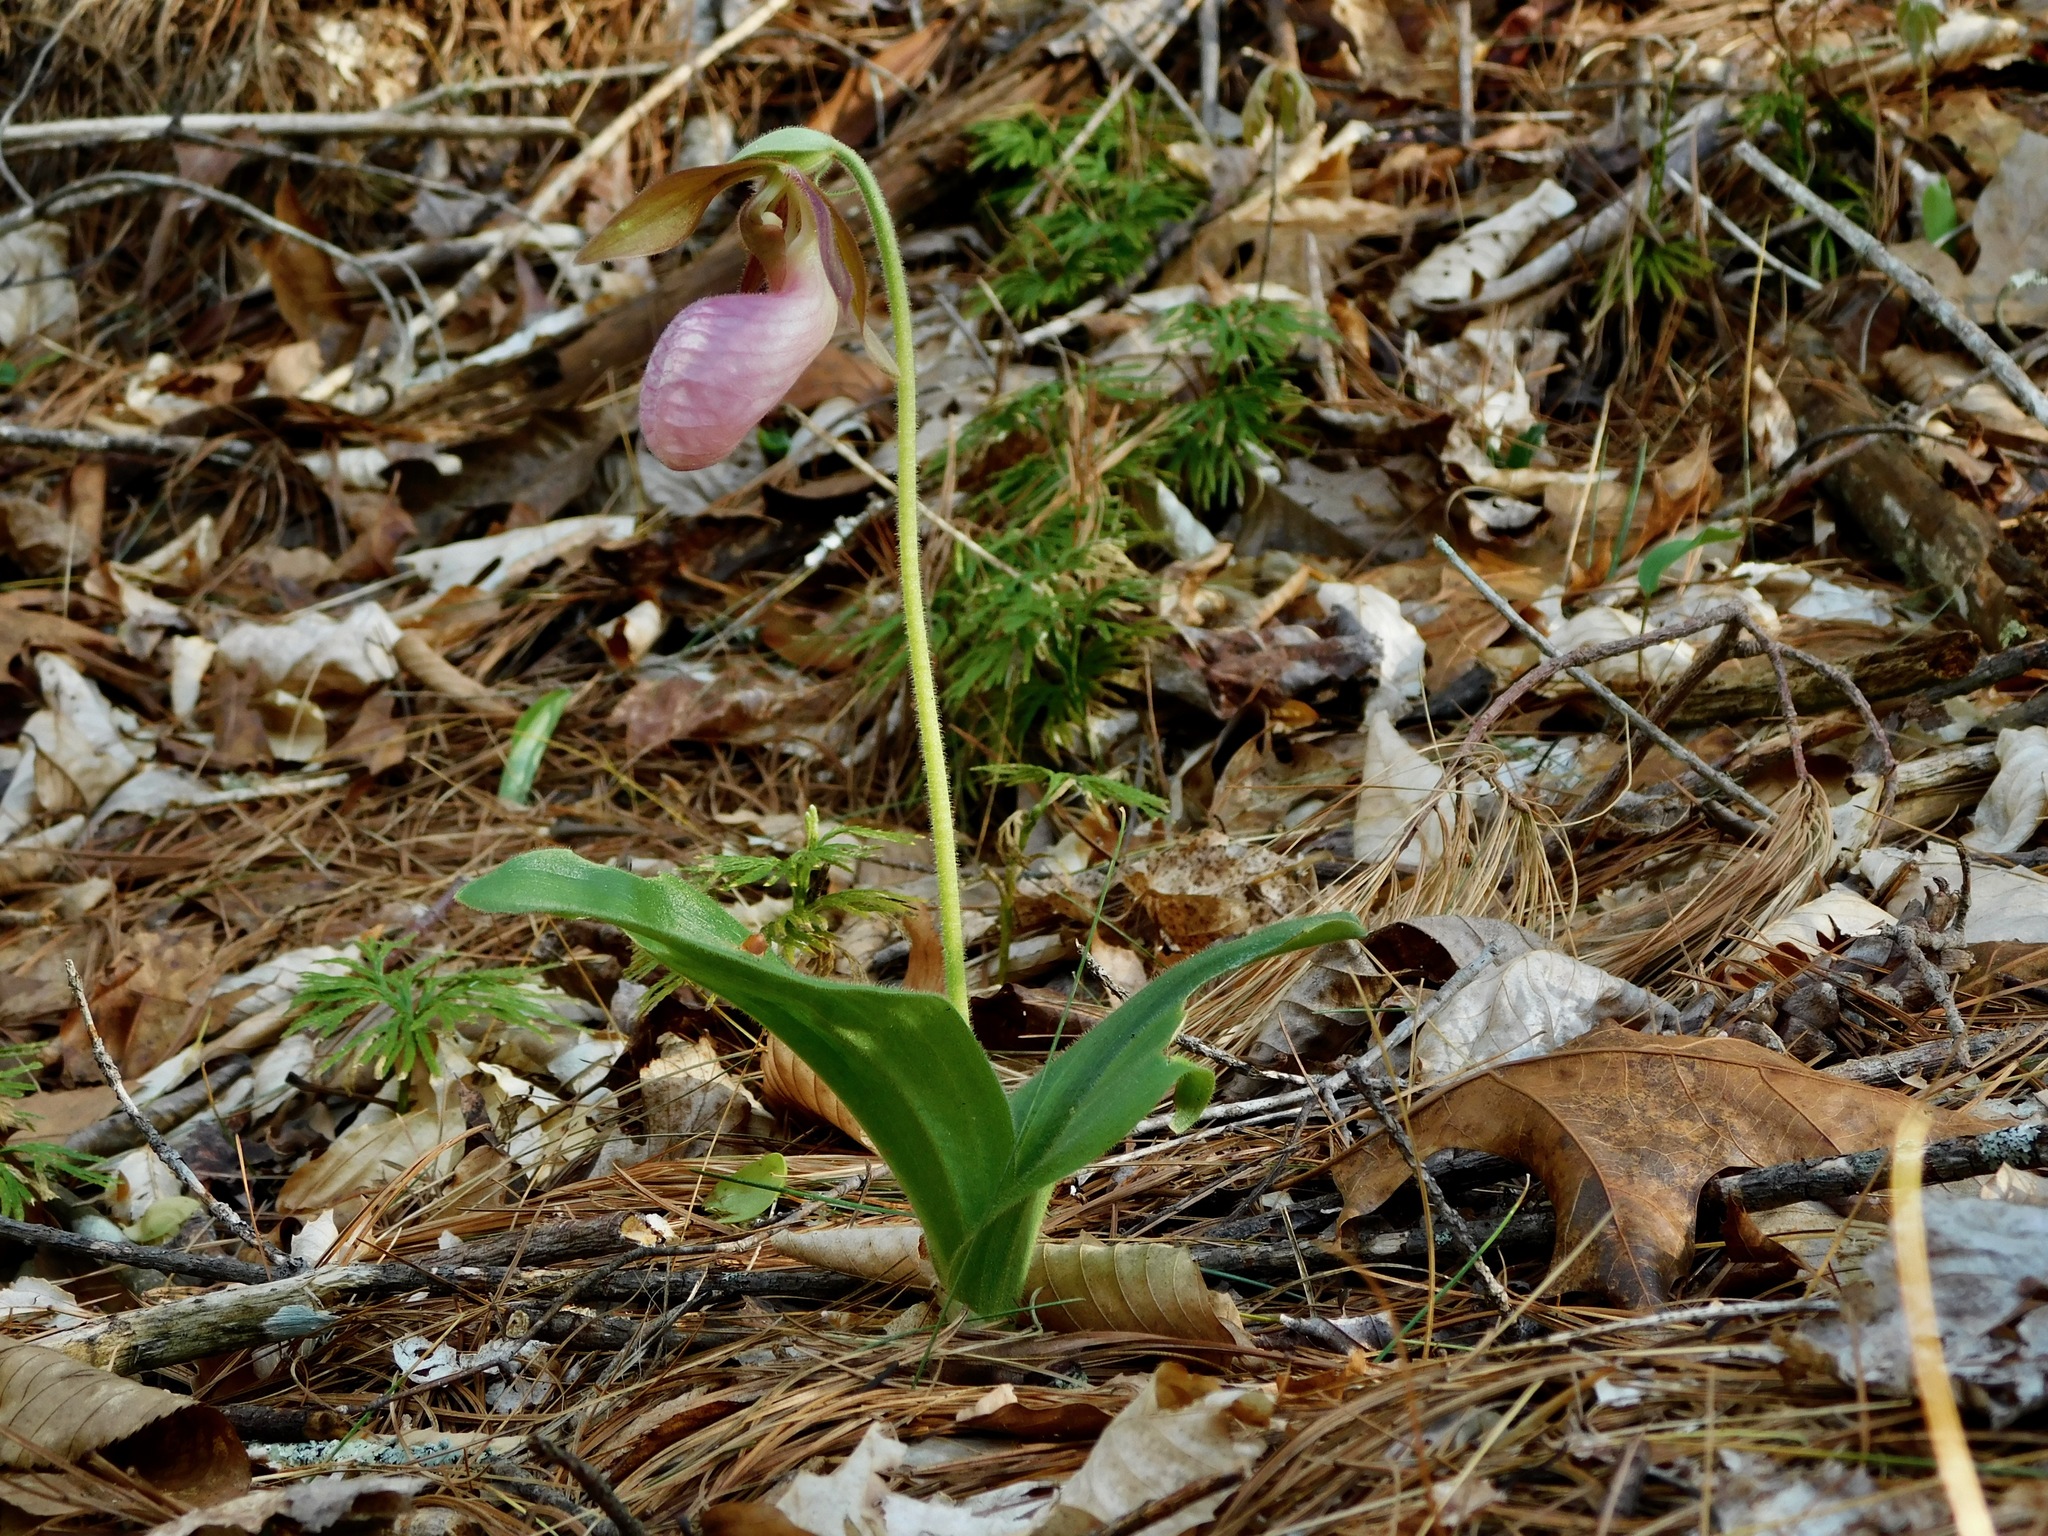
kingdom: Plantae
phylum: Tracheophyta
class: Liliopsida
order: Asparagales
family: Orchidaceae
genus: Cypripedium
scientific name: Cypripedium acaule
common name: Pink lady's-slipper
